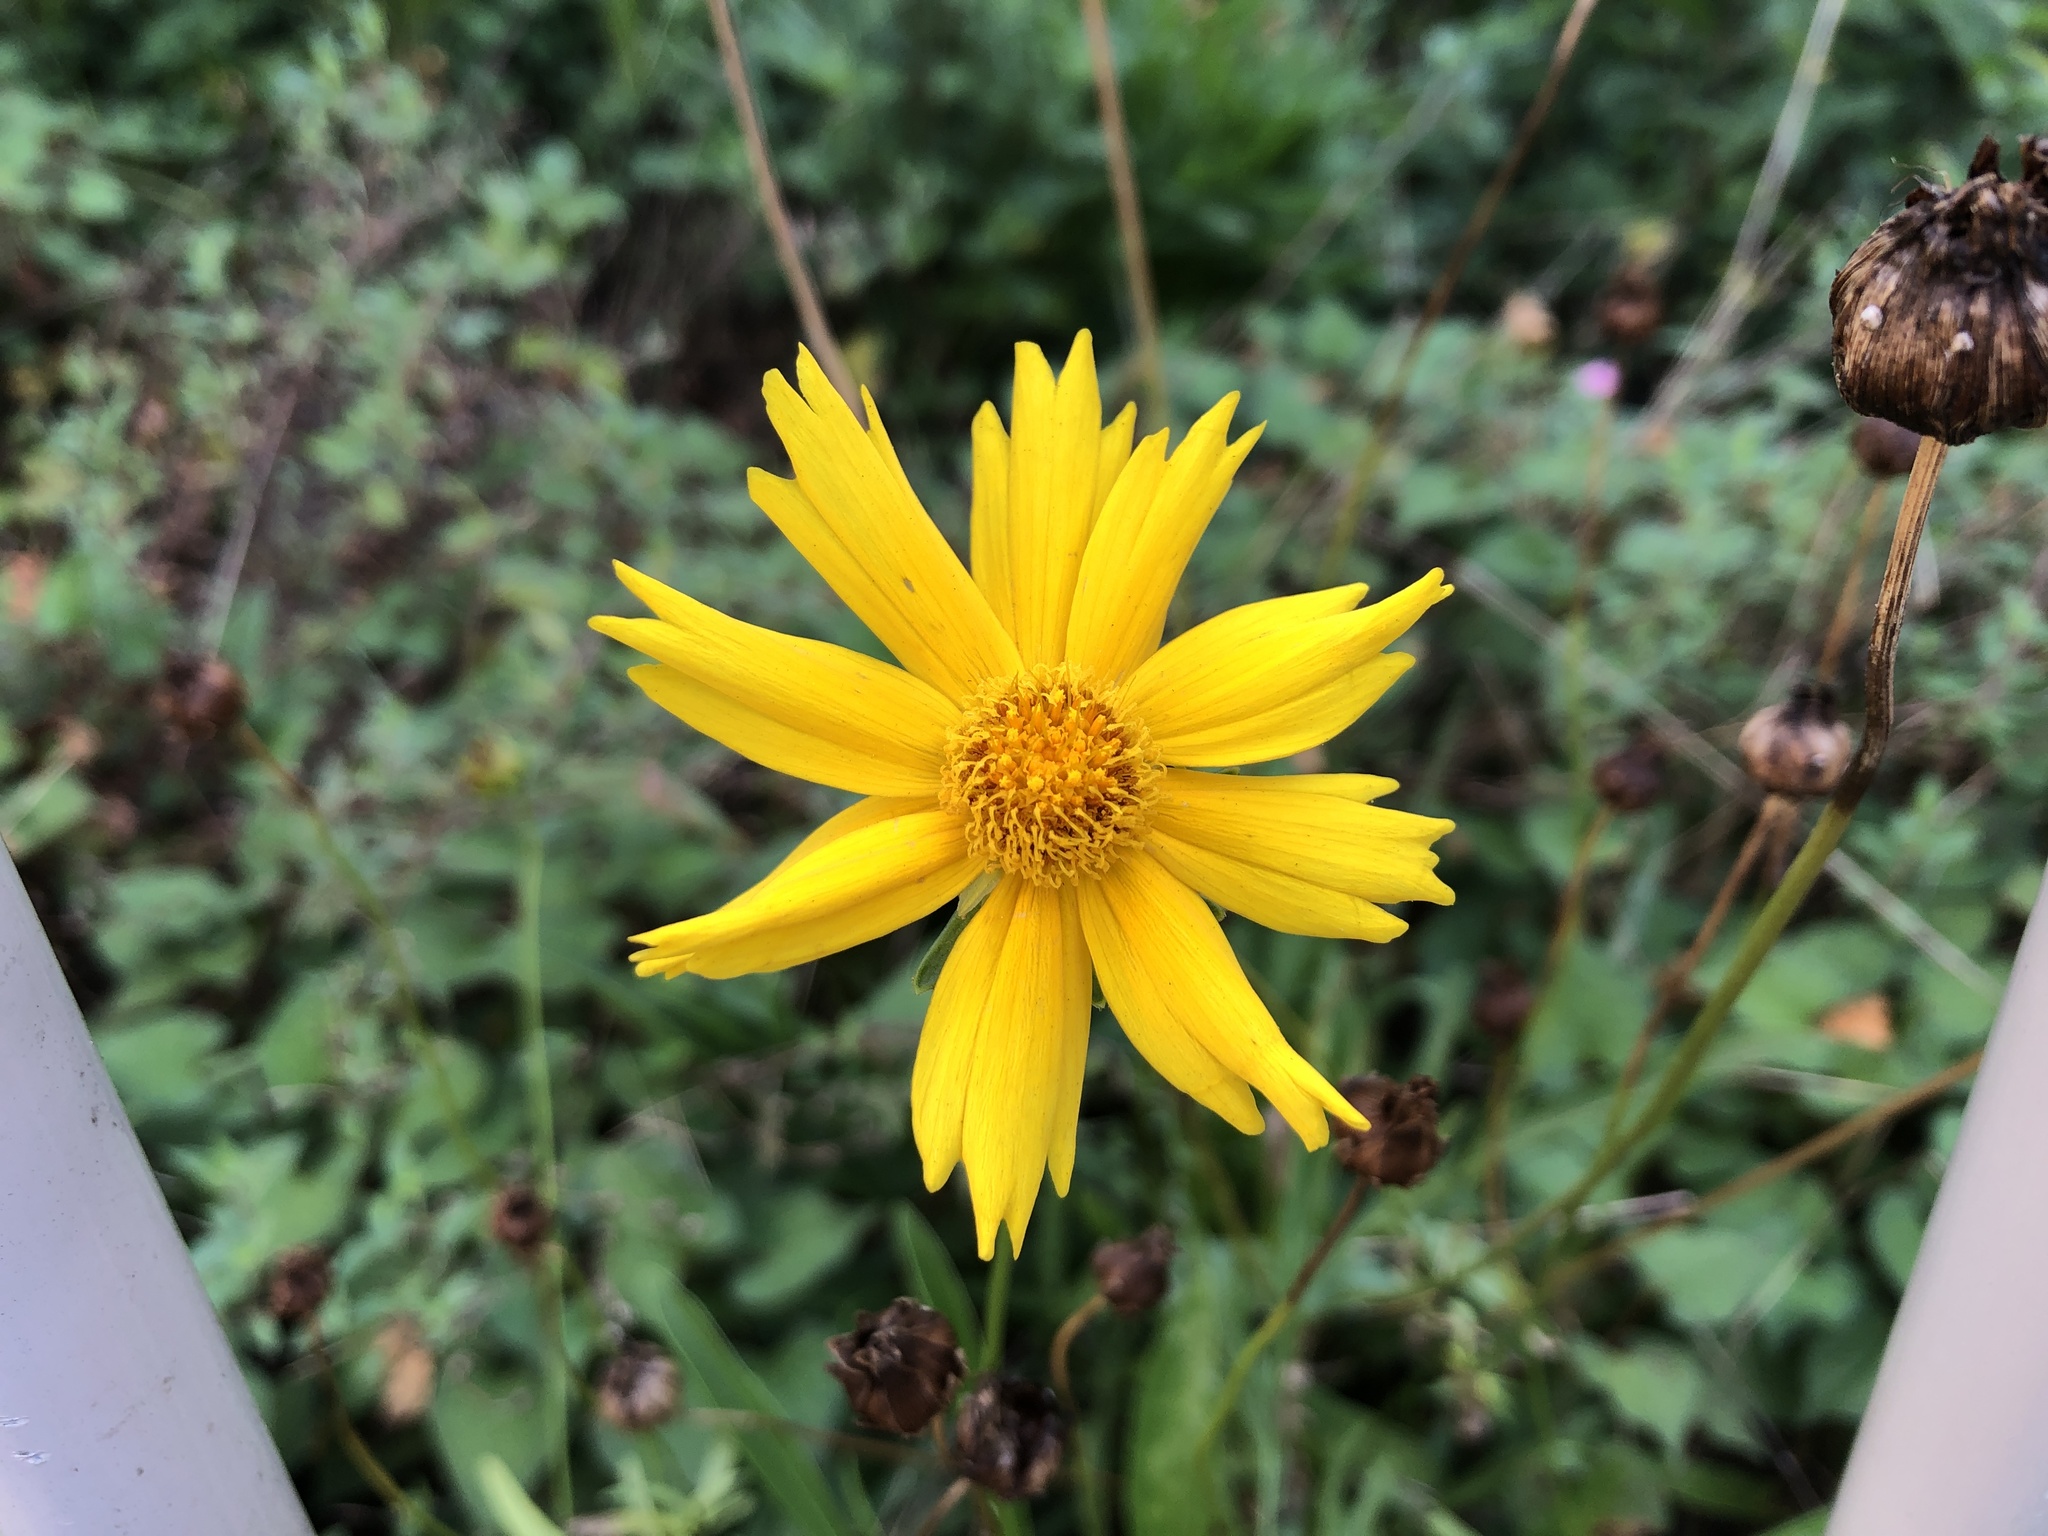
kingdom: Plantae
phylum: Tracheophyta
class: Magnoliopsida
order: Asterales
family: Asteraceae
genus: Coreopsis
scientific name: Coreopsis lanceolata
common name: Garden coreopsis
